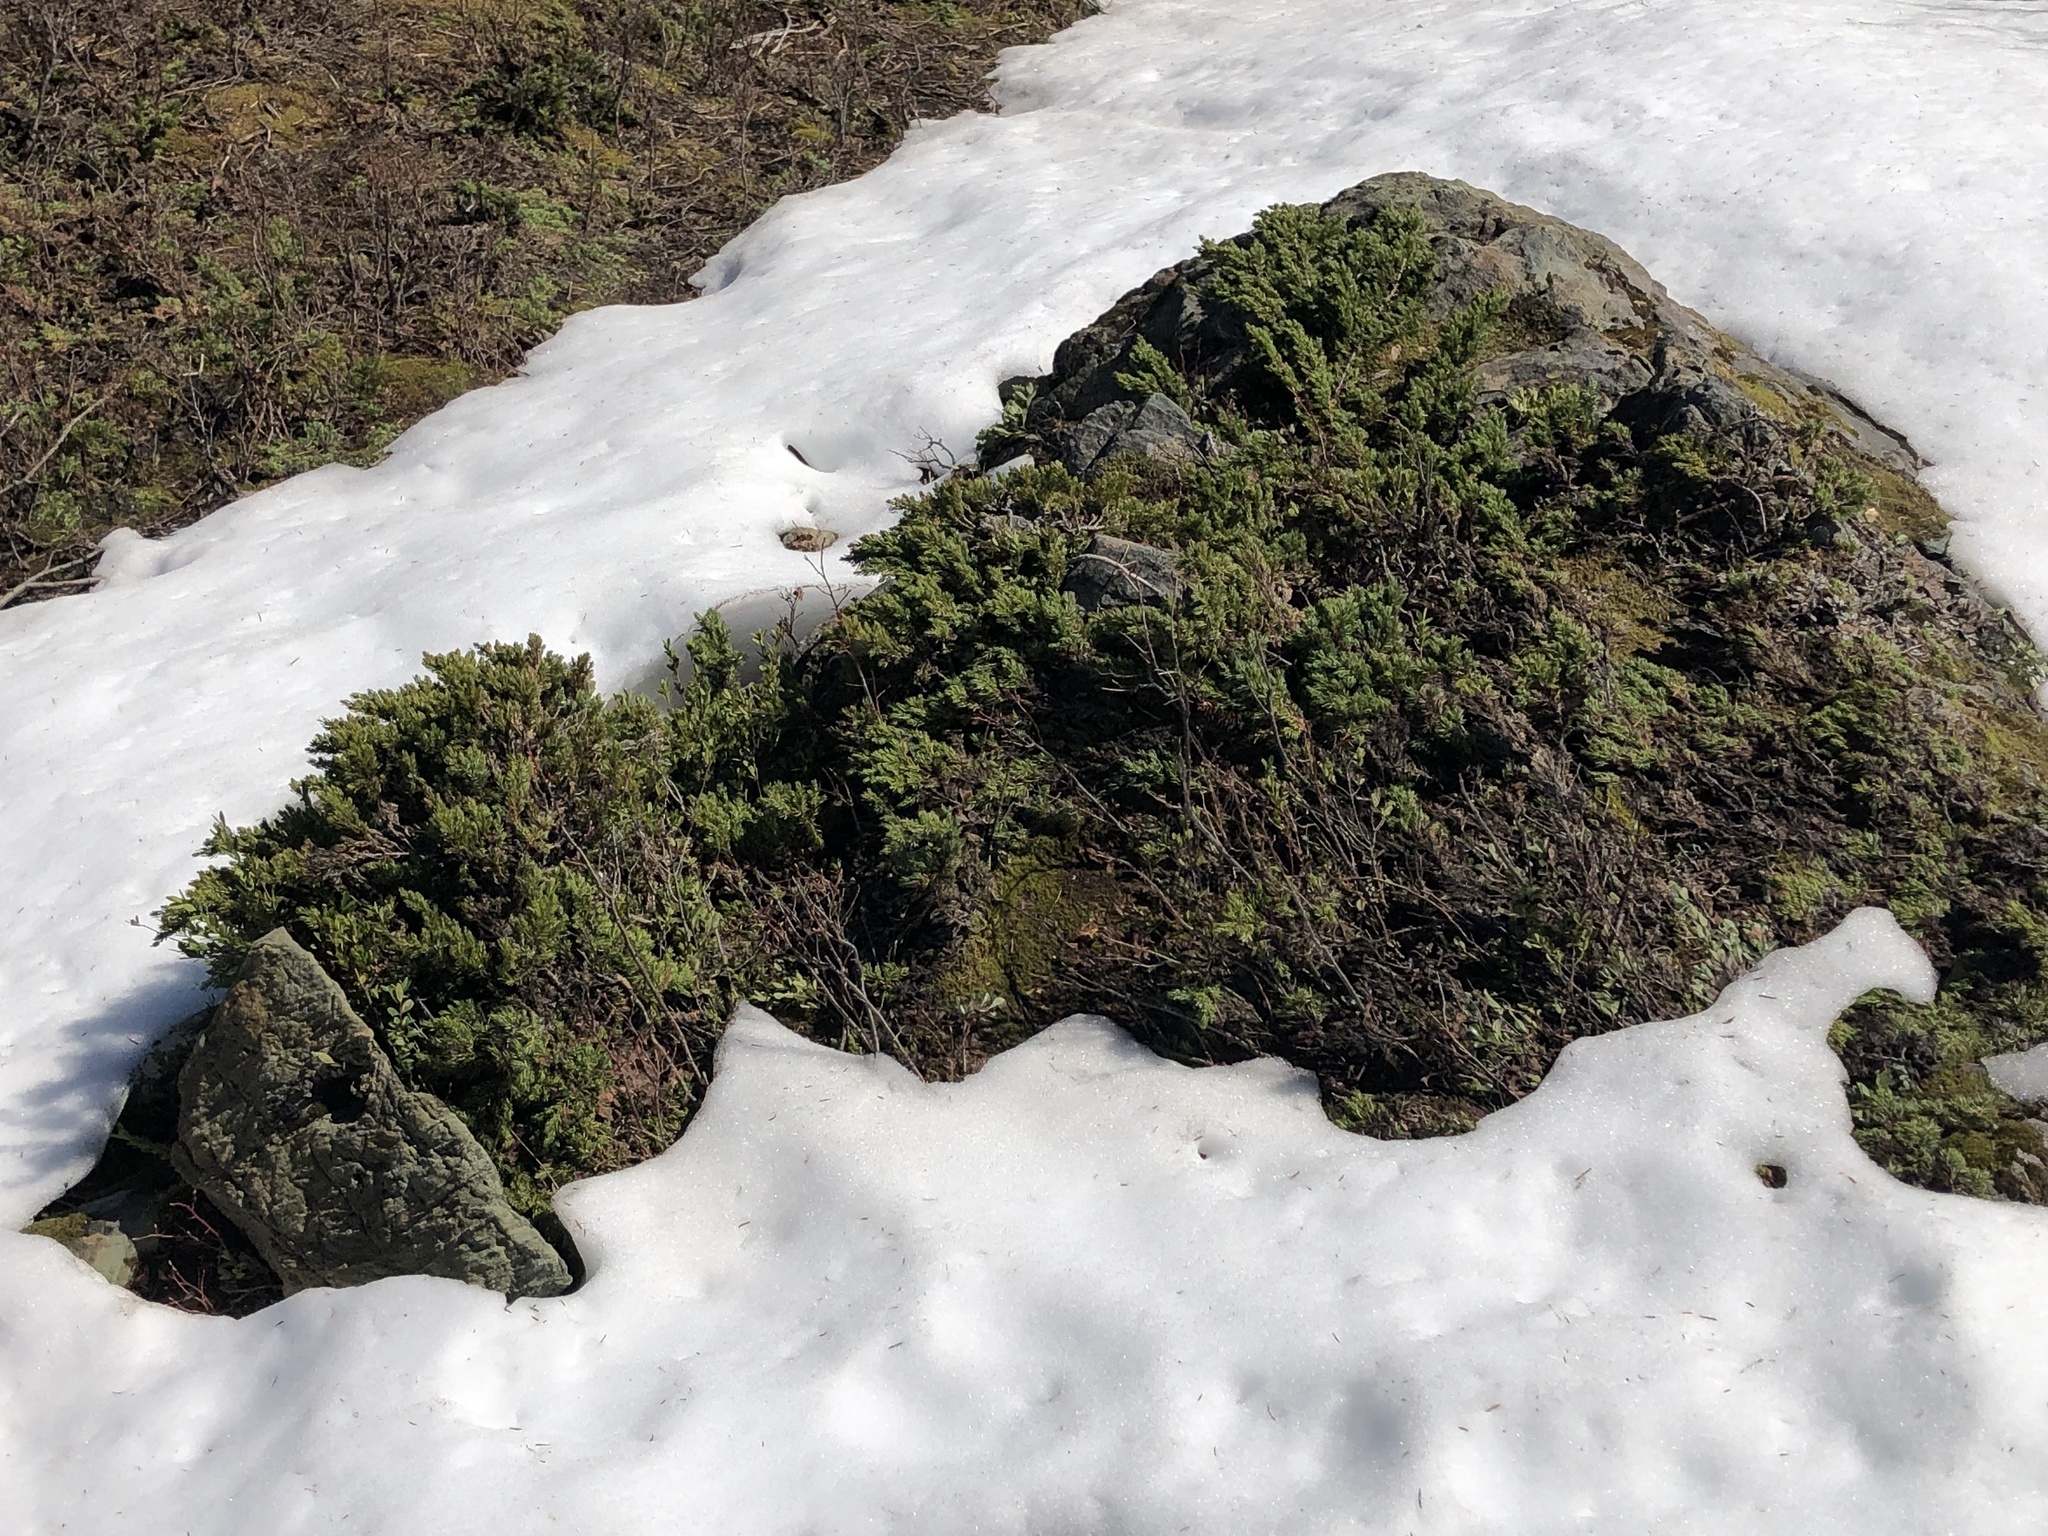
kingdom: Plantae
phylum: Tracheophyta
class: Pinopsida
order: Pinales
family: Cupressaceae
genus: Juniperus
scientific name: Juniperus communis
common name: Common juniper
